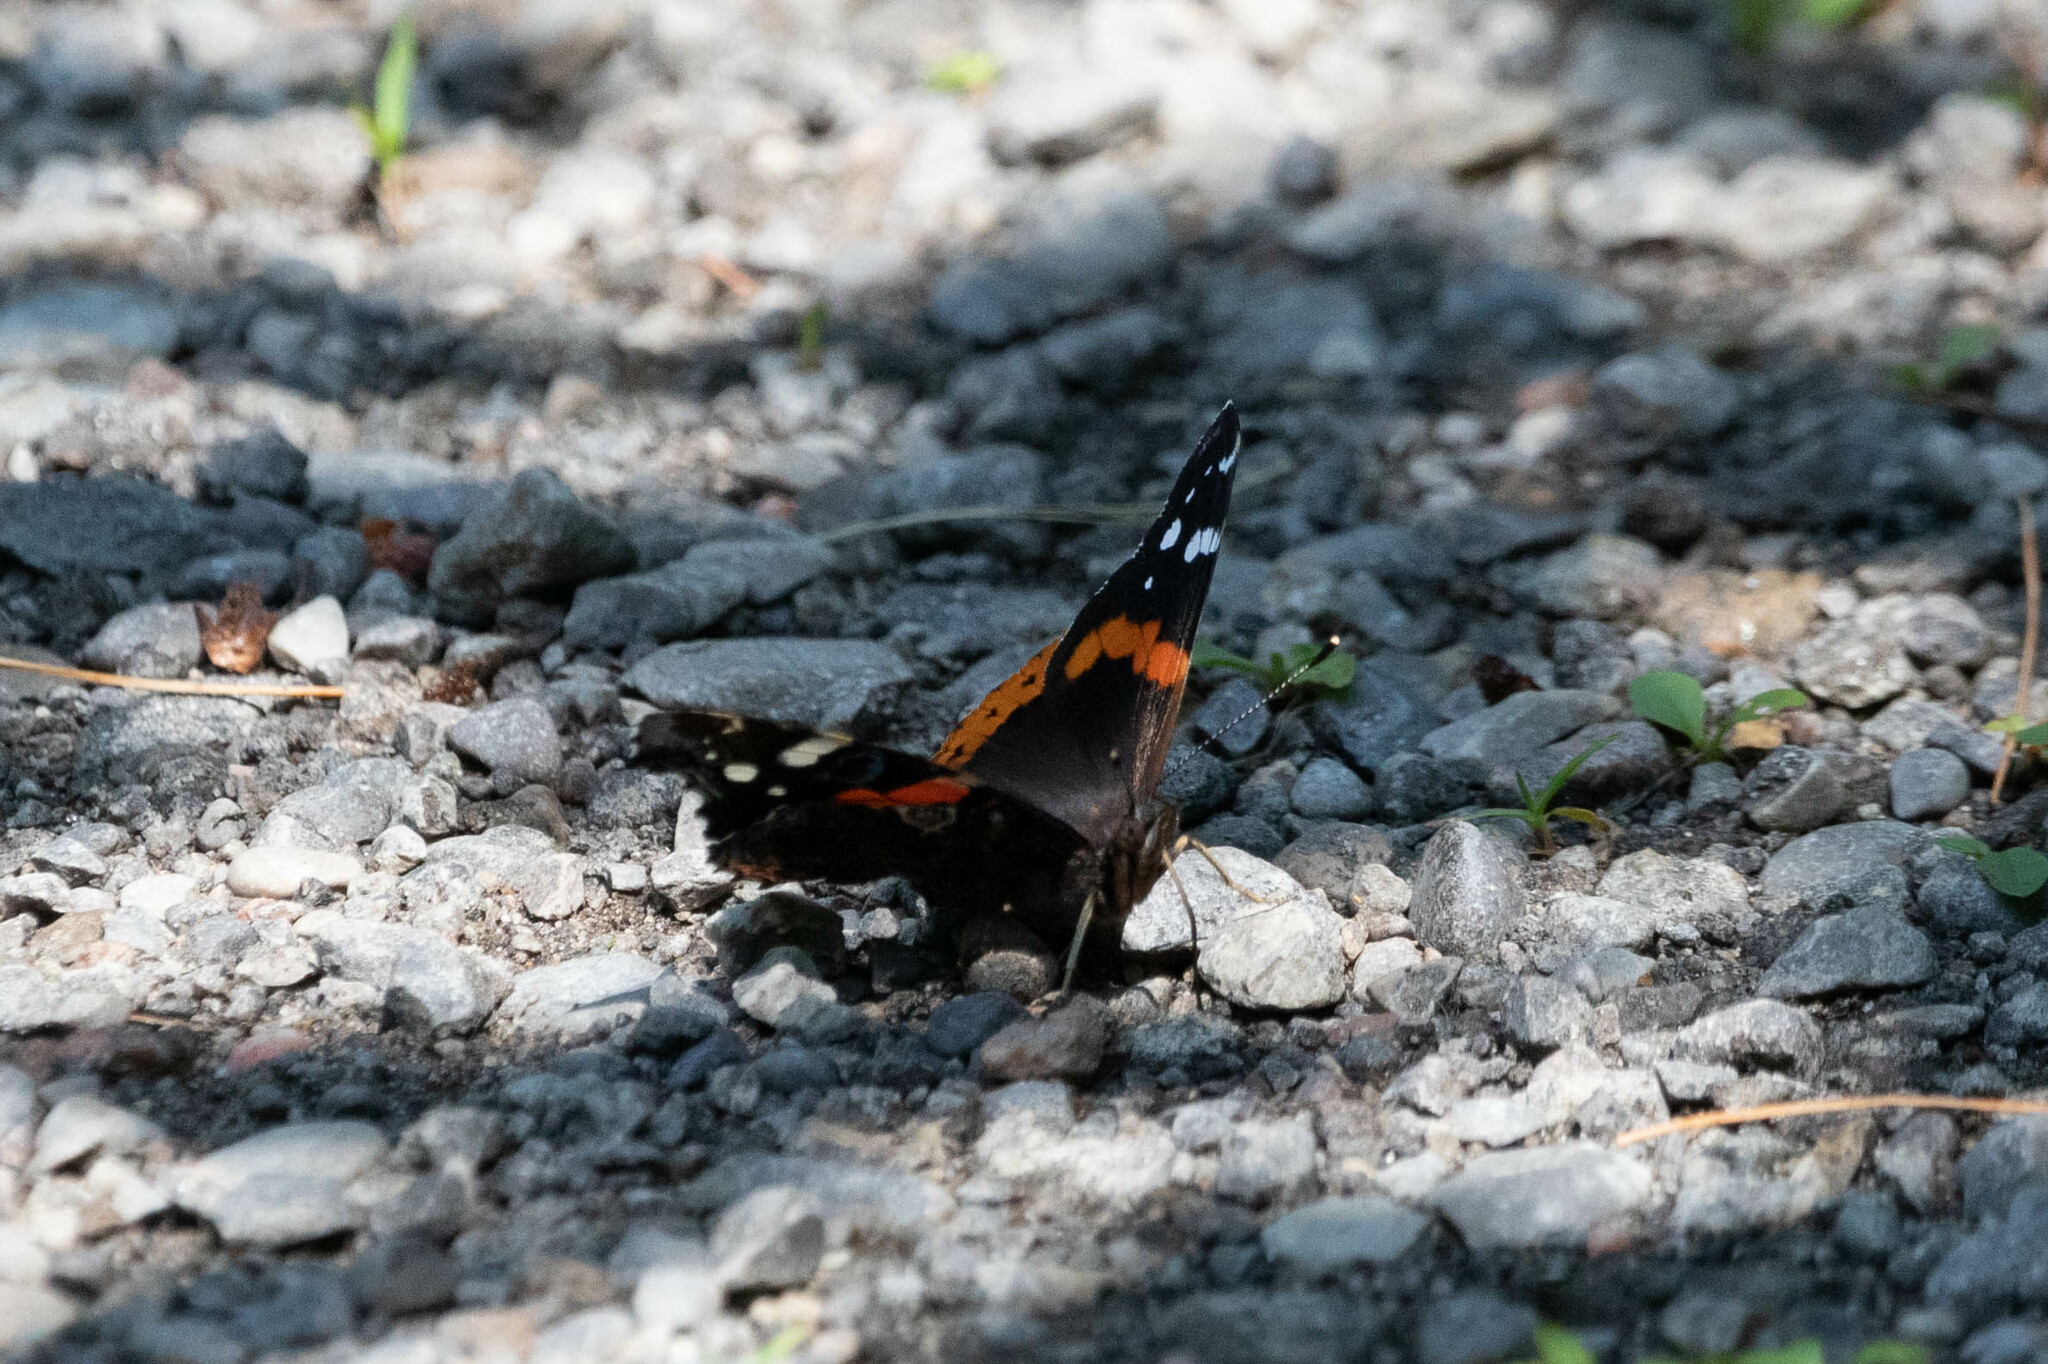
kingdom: Animalia
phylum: Arthropoda
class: Insecta
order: Lepidoptera
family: Nymphalidae
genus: Vanessa
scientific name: Vanessa atalanta
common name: Red admiral
